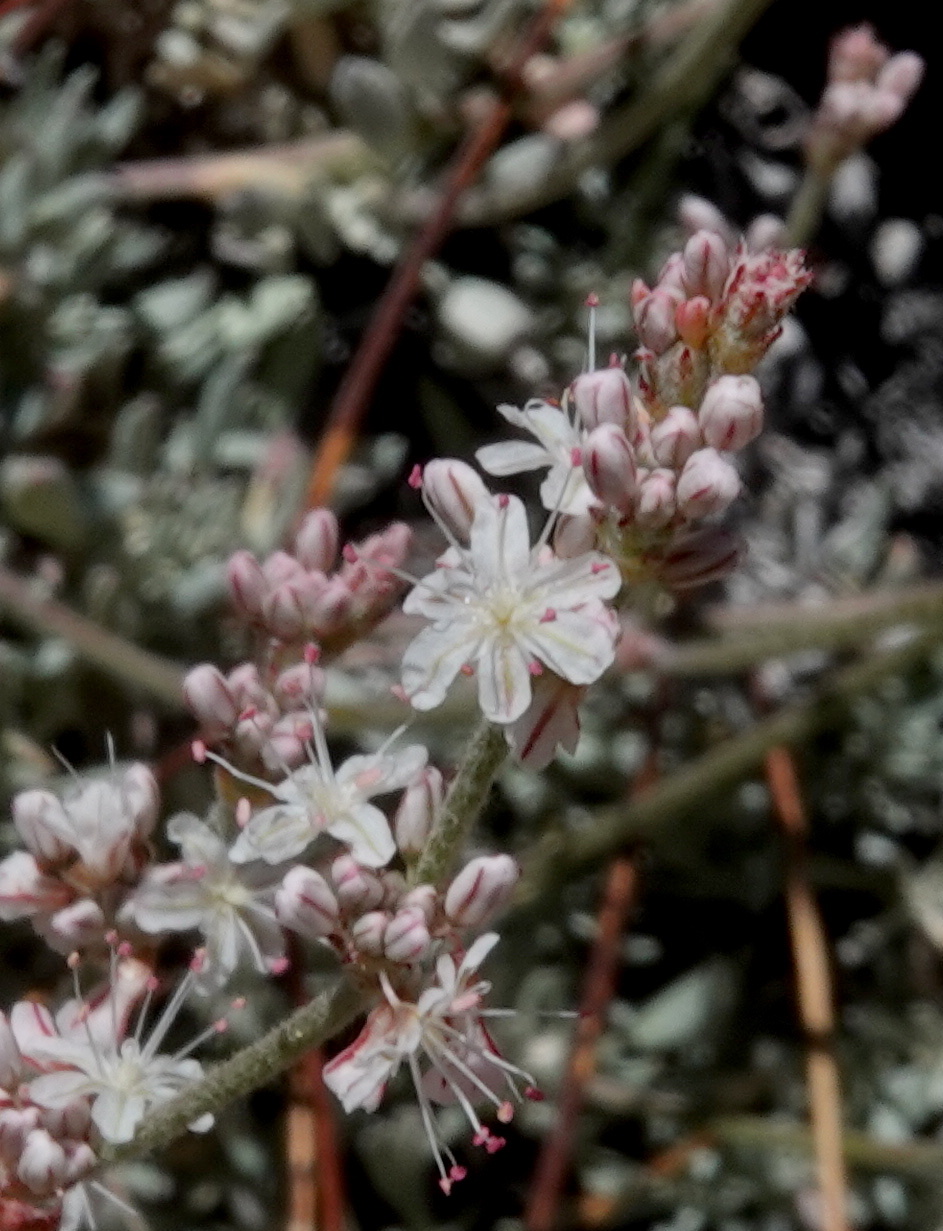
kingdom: Plantae
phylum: Tracheophyta
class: Magnoliopsida
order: Caryophyllales
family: Polygonaceae
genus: Eriogonum
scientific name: Eriogonum wrightii
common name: Bastard-sage
